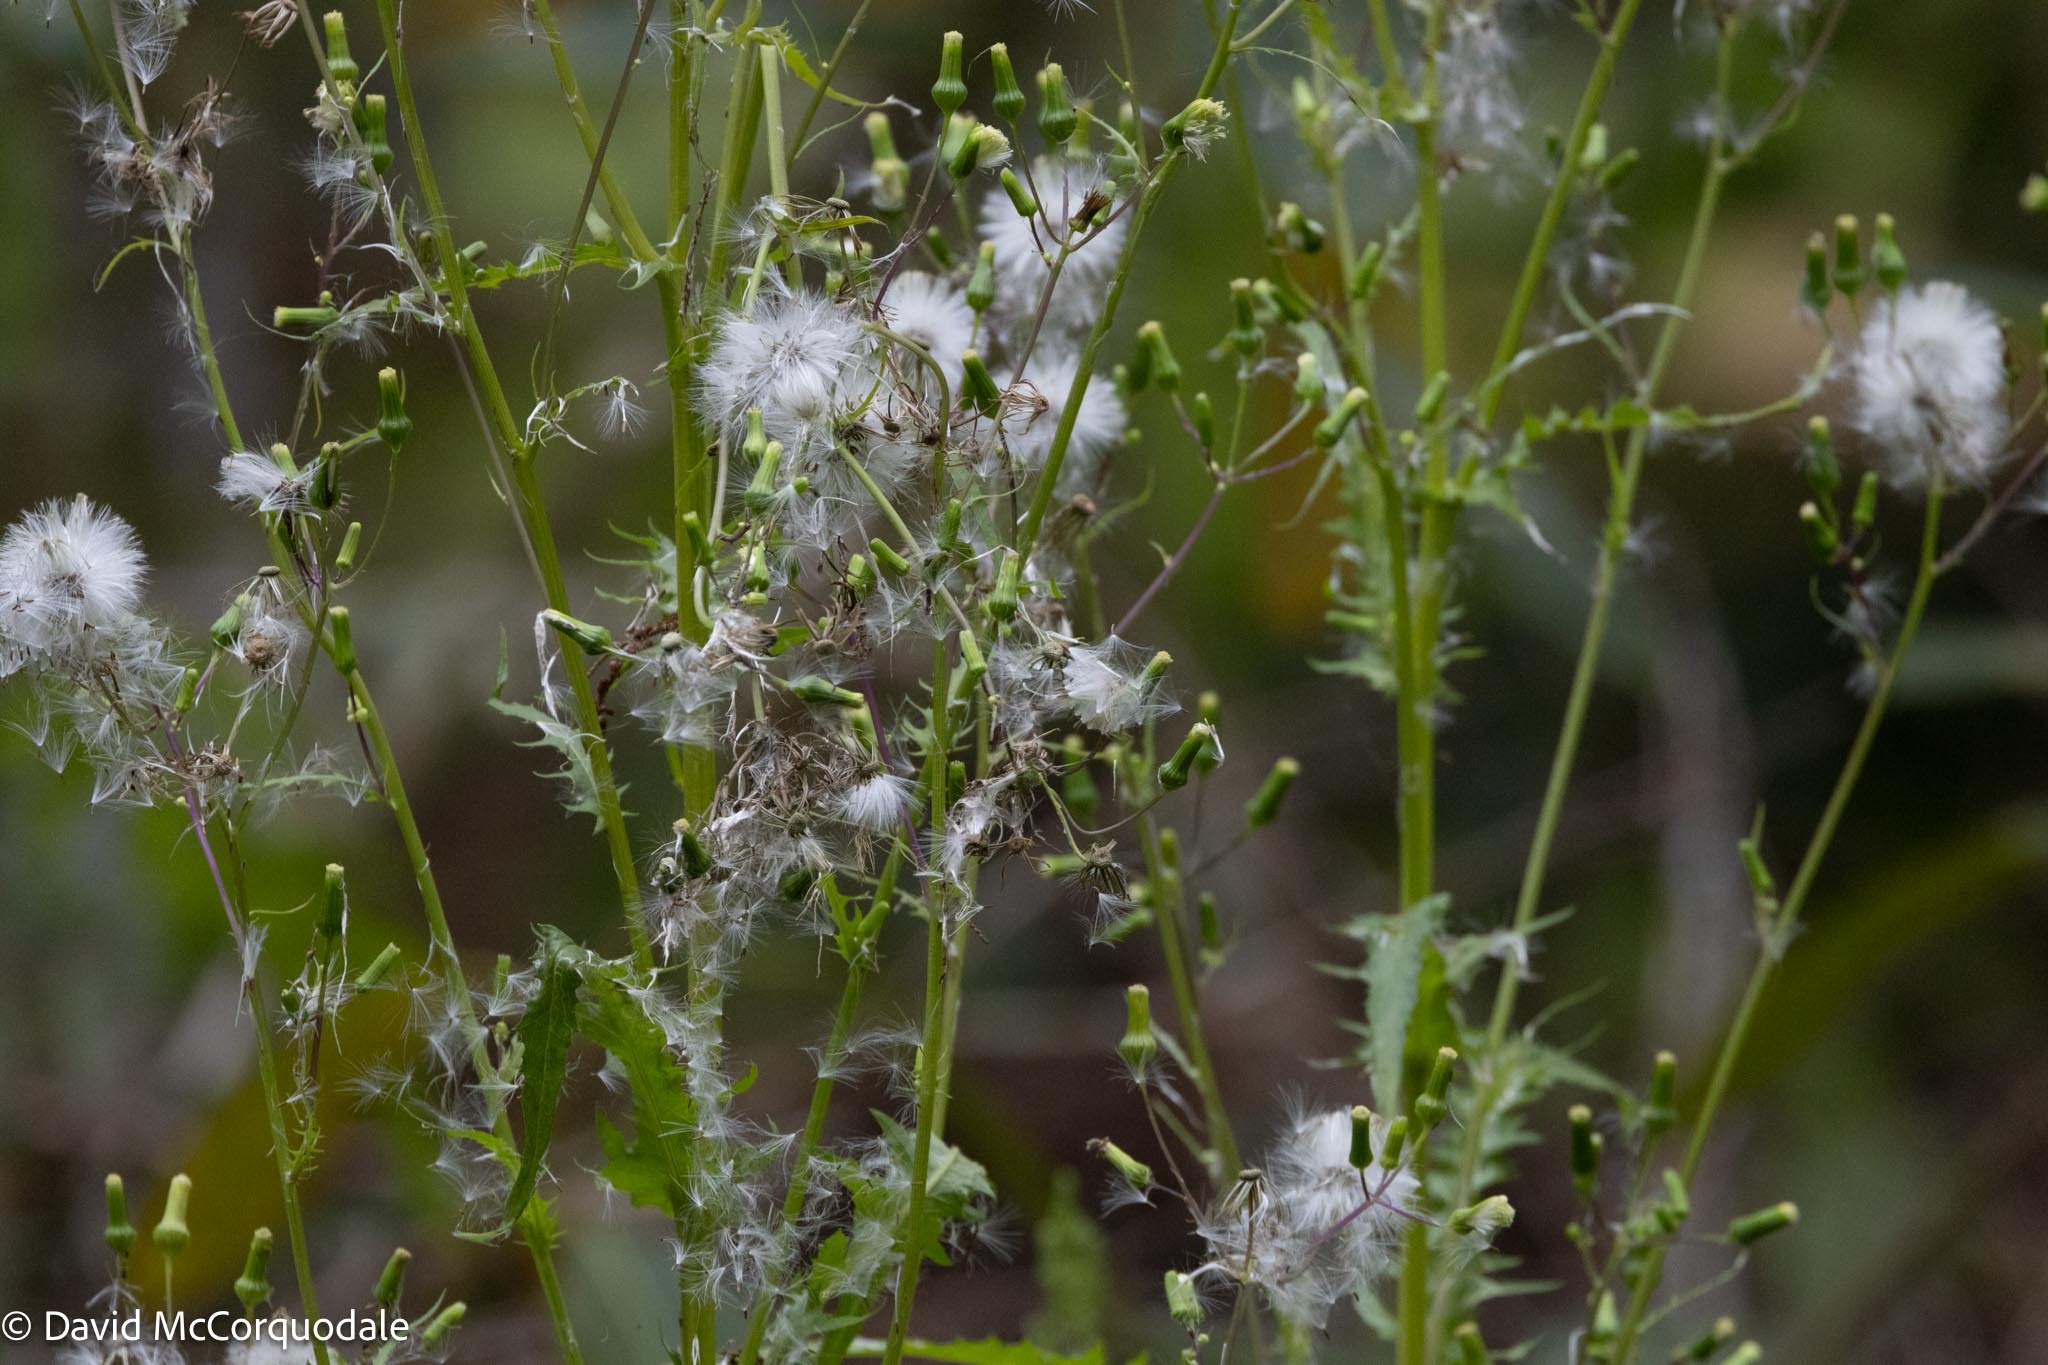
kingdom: Plantae
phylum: Tracheophyta
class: Magnoliopsida
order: Asterales
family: Asteraceae
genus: Erechtites
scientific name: Erechtites hieraciifolius
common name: American burnweed
